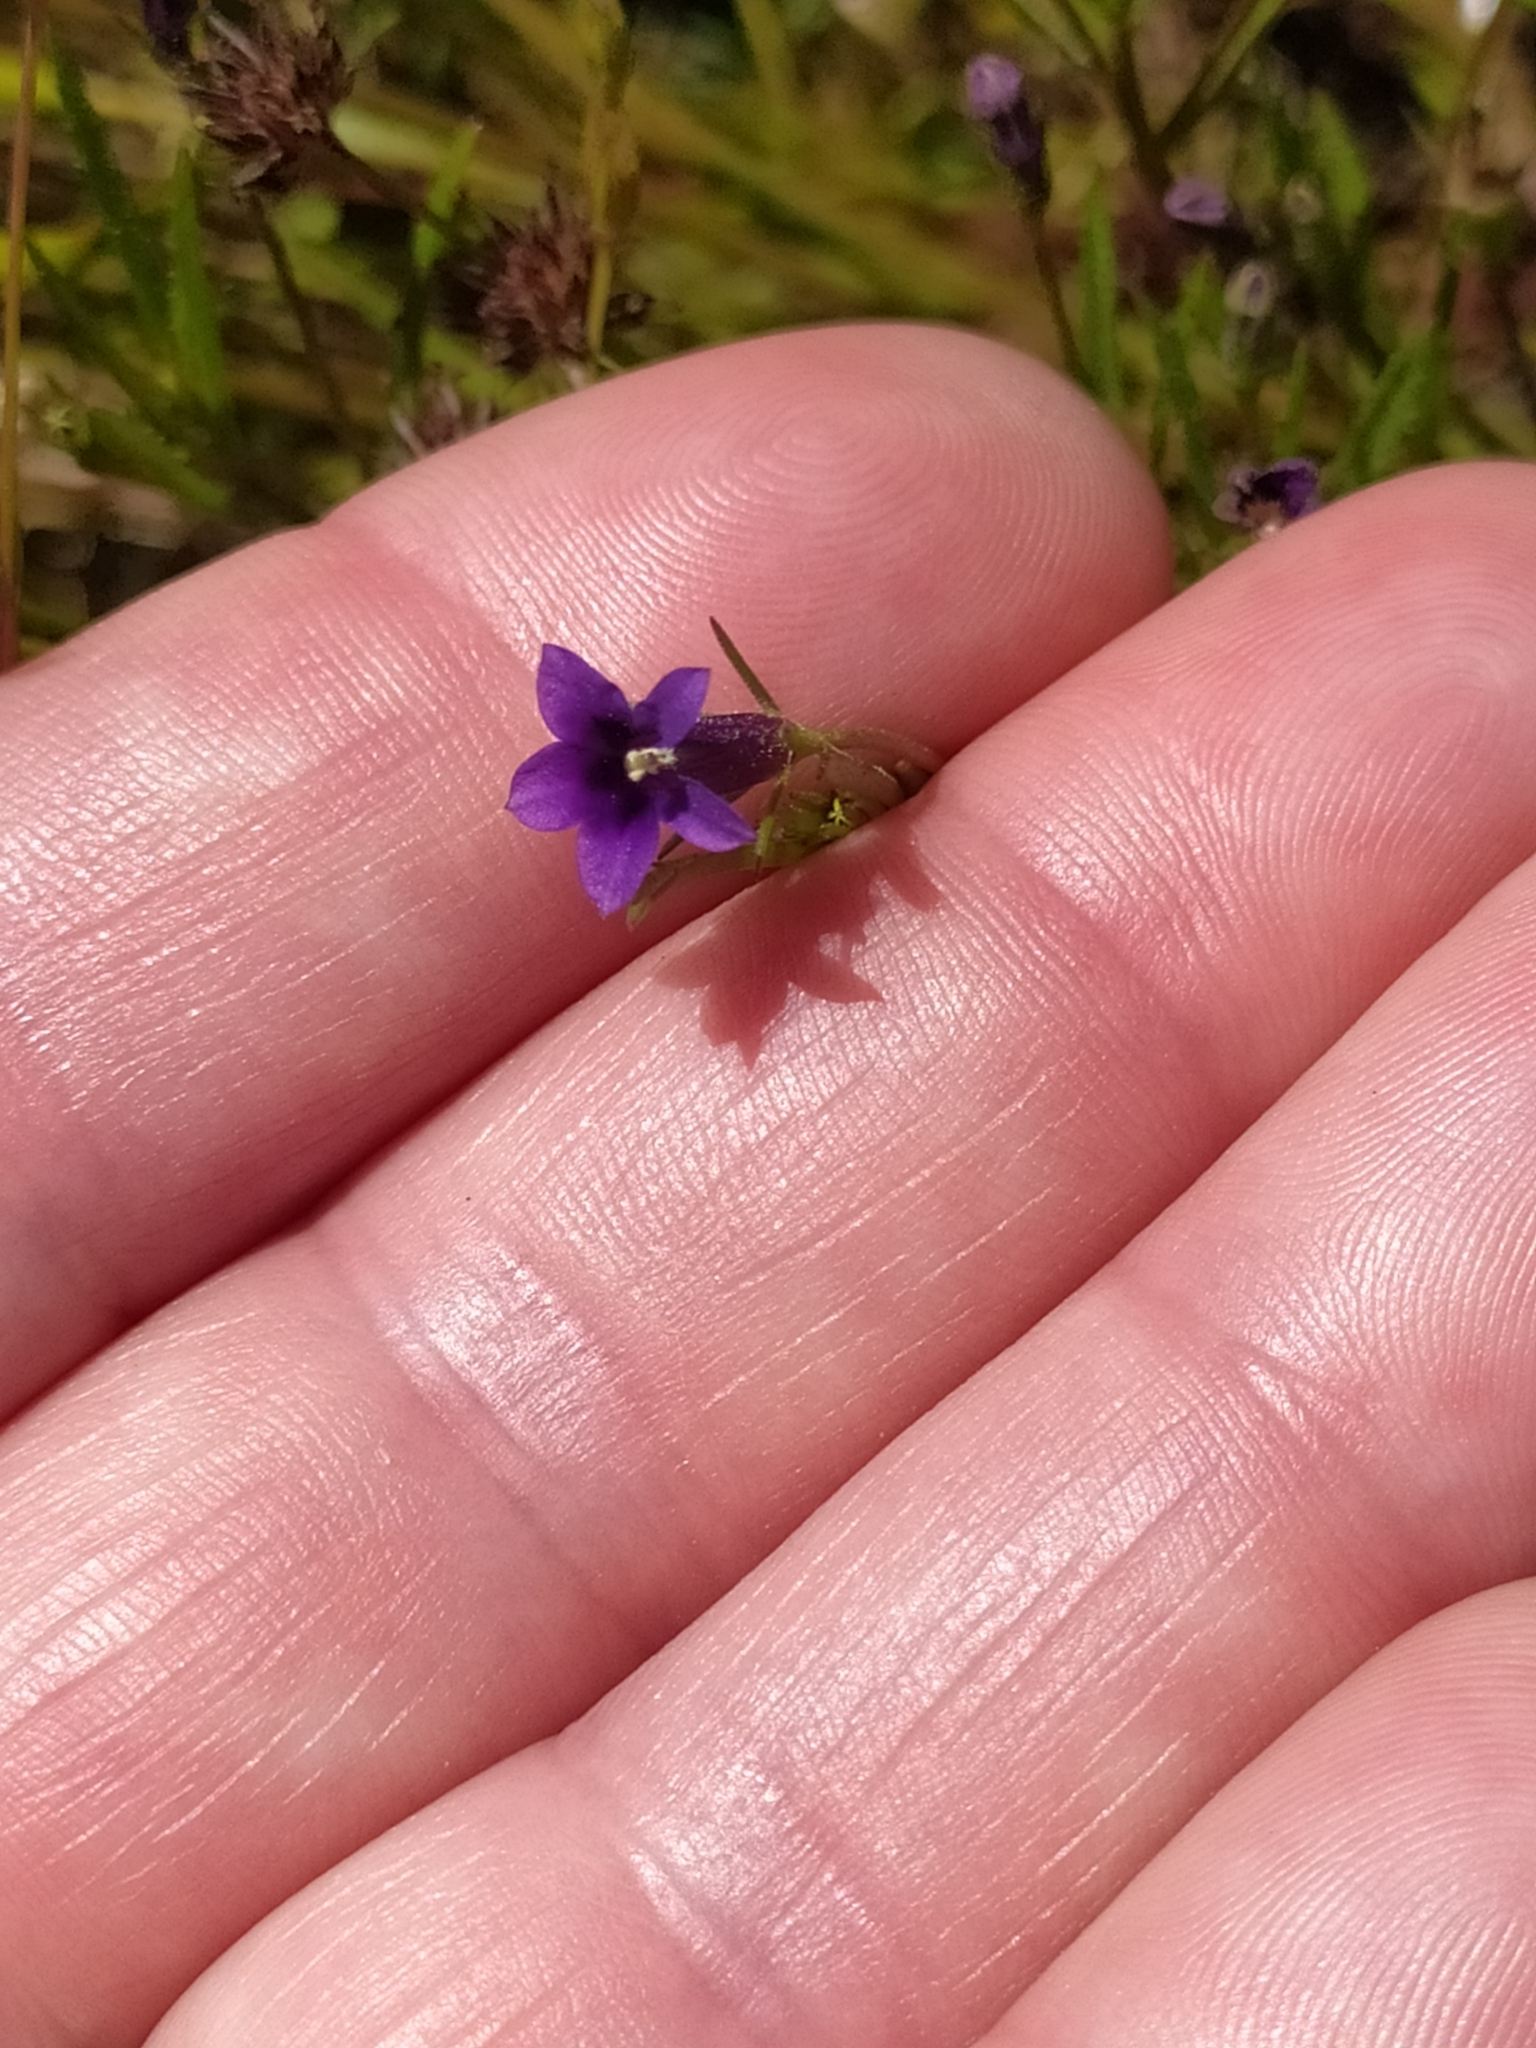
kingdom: Plantae
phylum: Tracheophyta
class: Magnoliopsida
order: Asterales
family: Campanulaceae
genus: Monopsis
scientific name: Monopsis debilis
